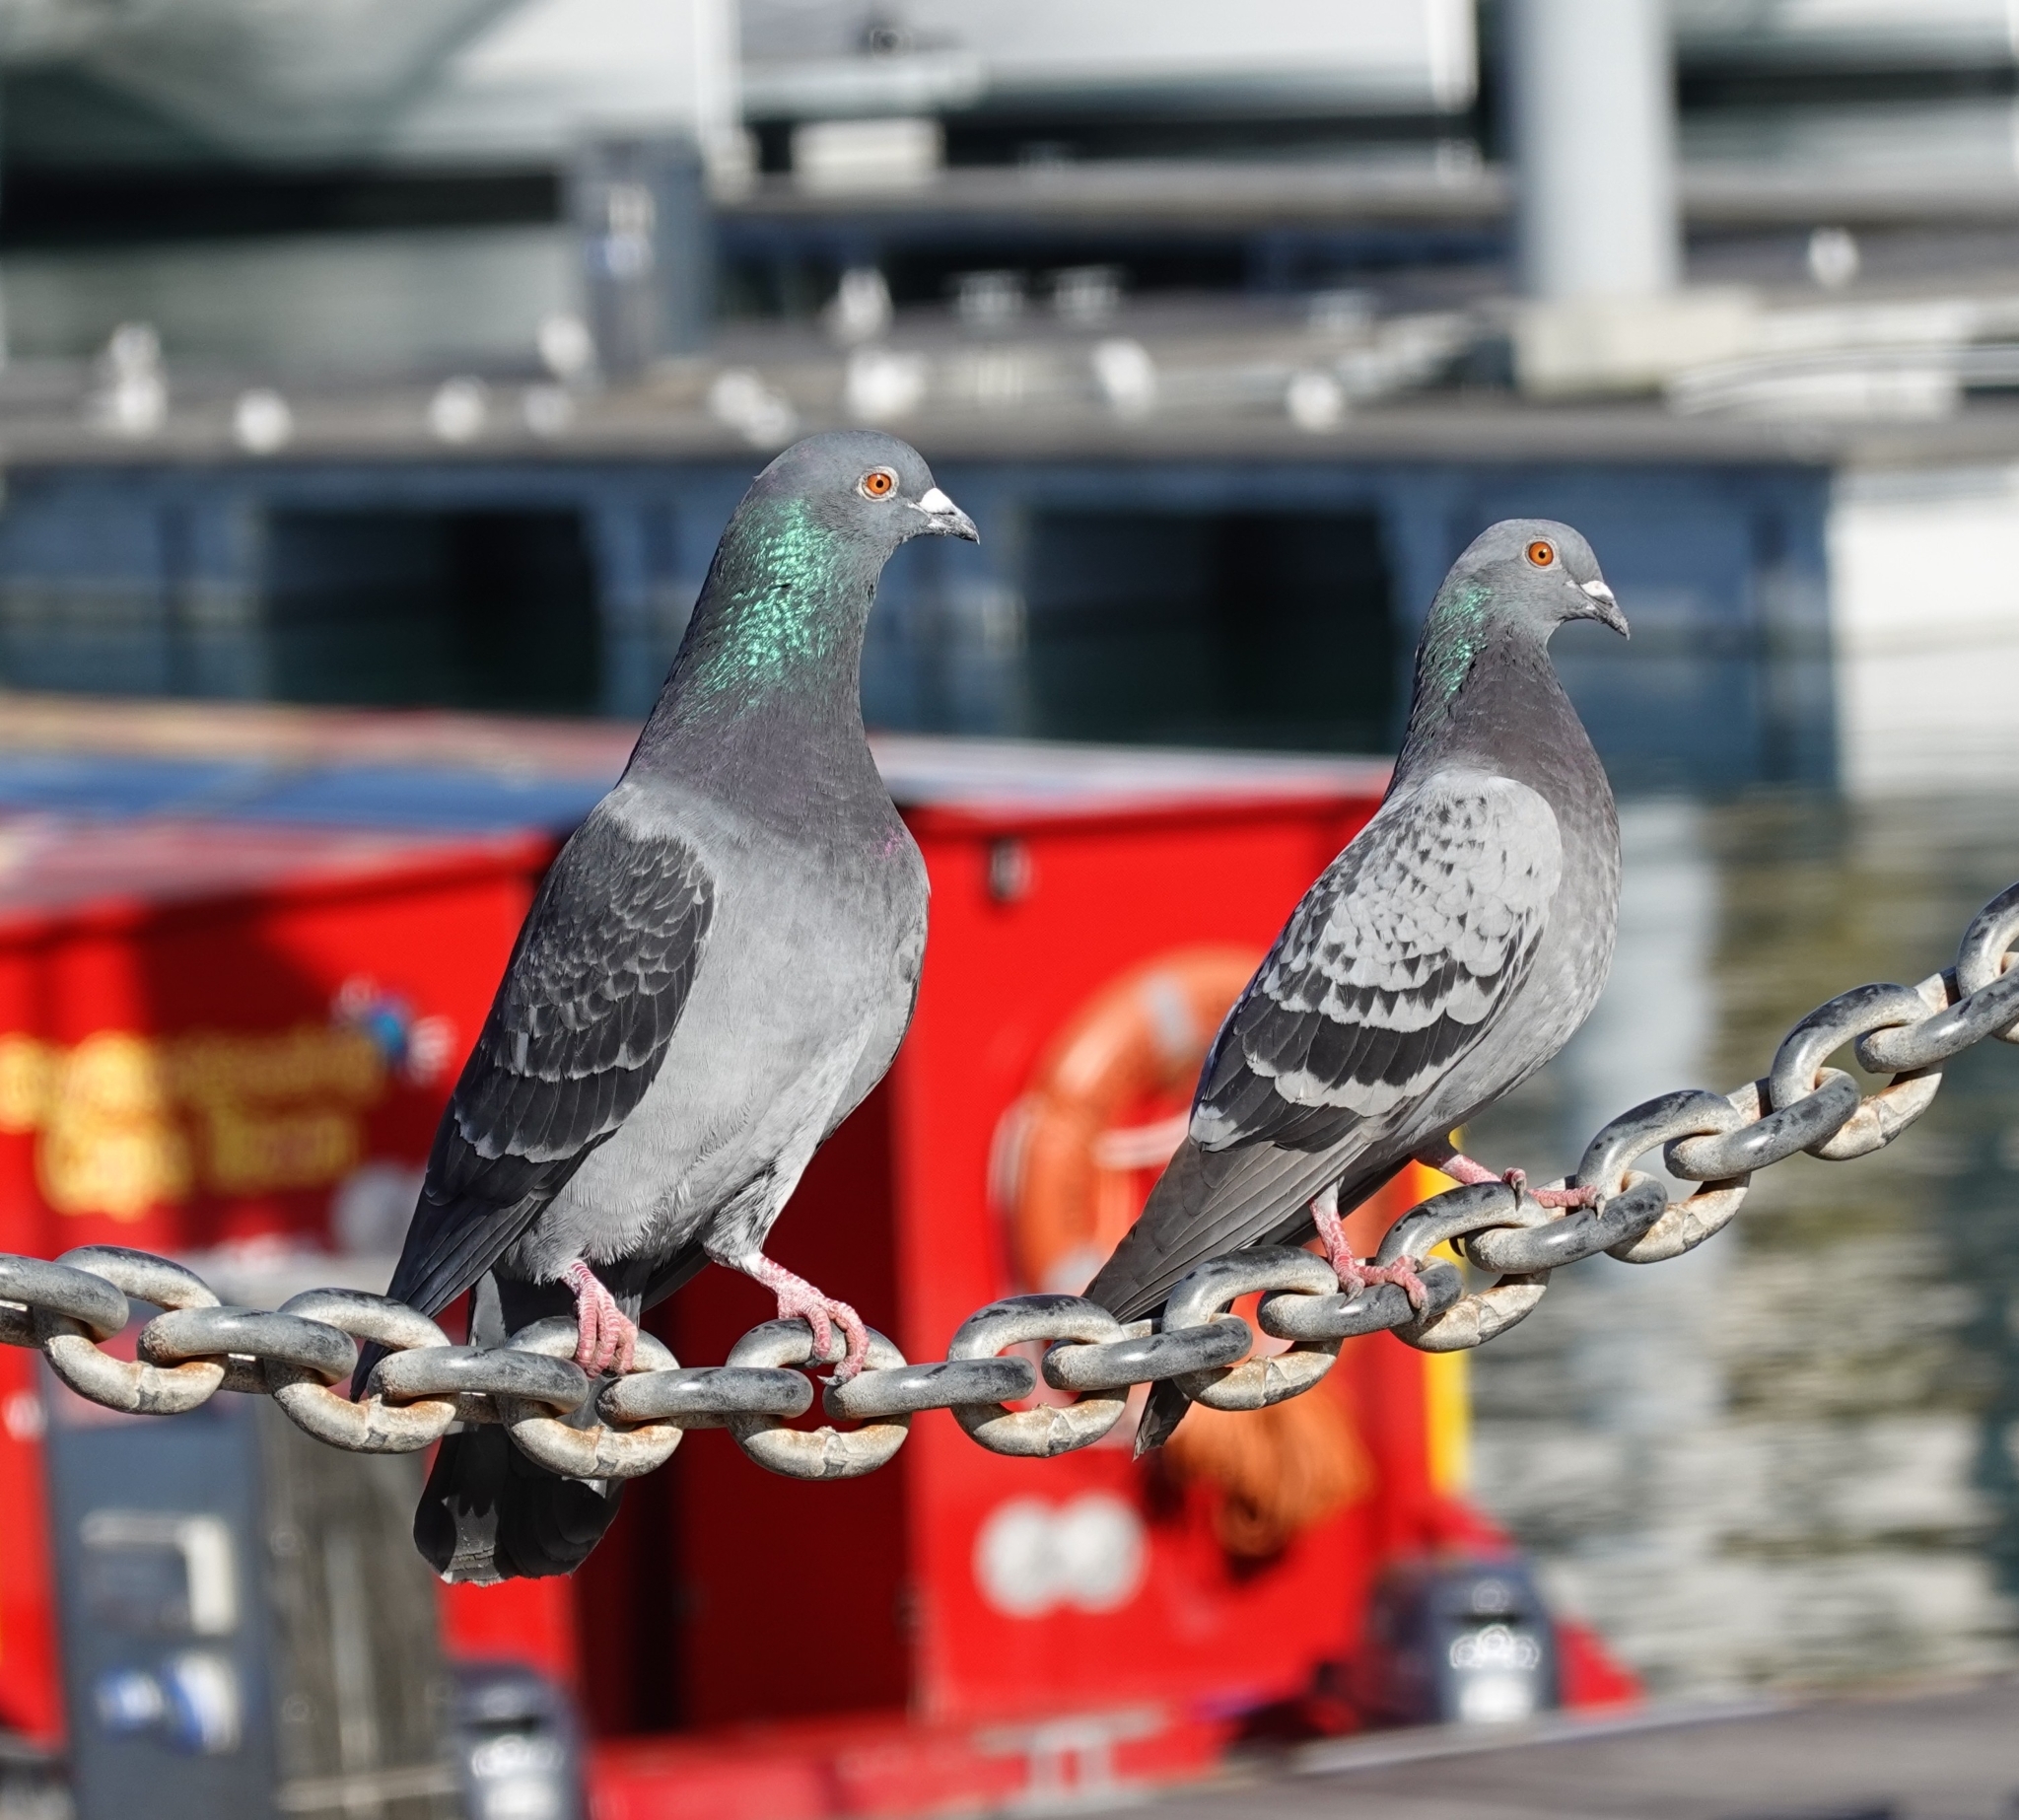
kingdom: Animalia
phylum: Chordata
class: Aves
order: Columbiformes
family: Columbidae
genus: Columba
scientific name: Columba livia
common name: Rock pigeon
